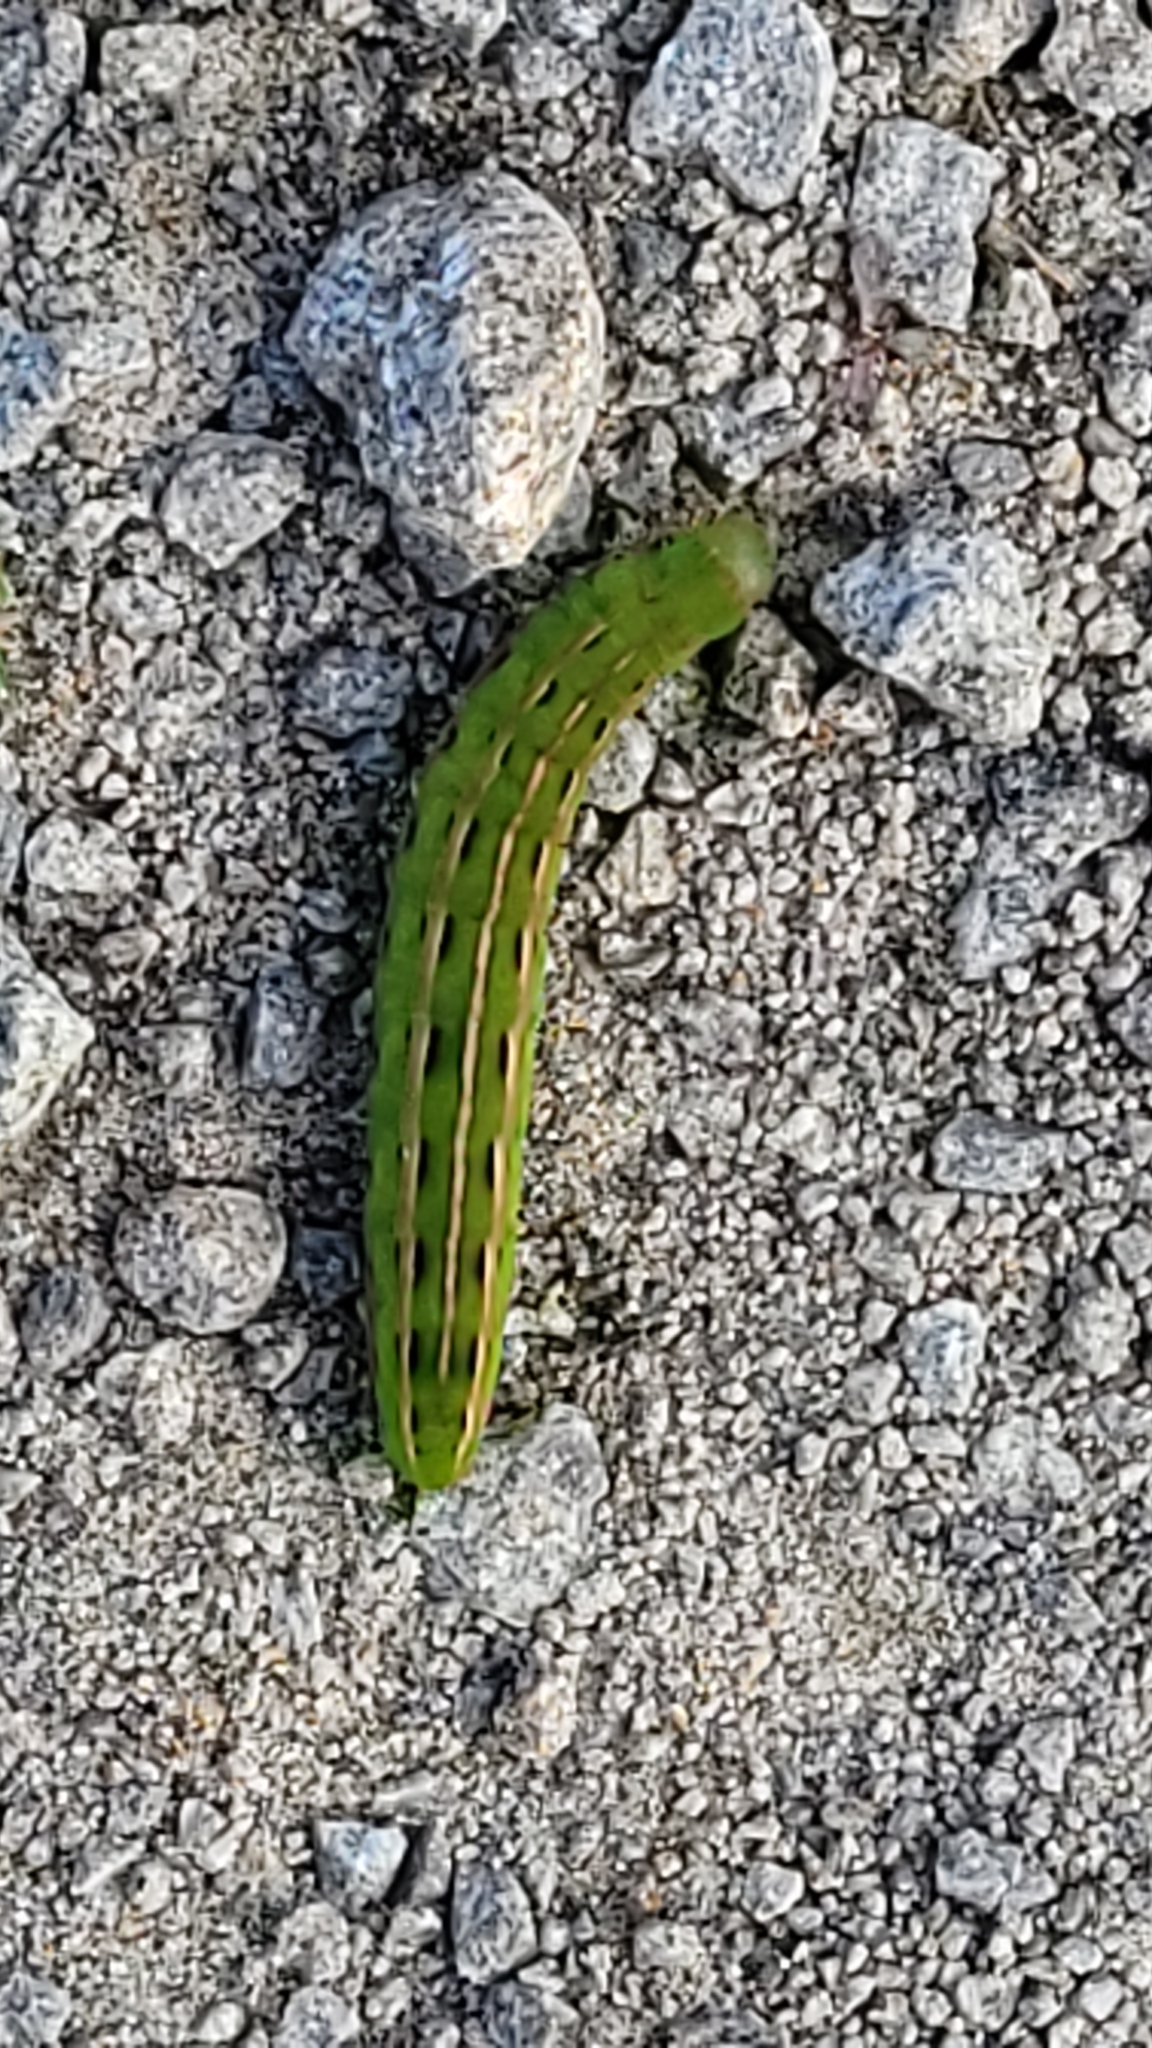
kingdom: Animalia
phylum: Arthropoda
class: Insecta
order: Lepidoptera
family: Noctuidae
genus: Dargida
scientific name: Dargida procinctus
